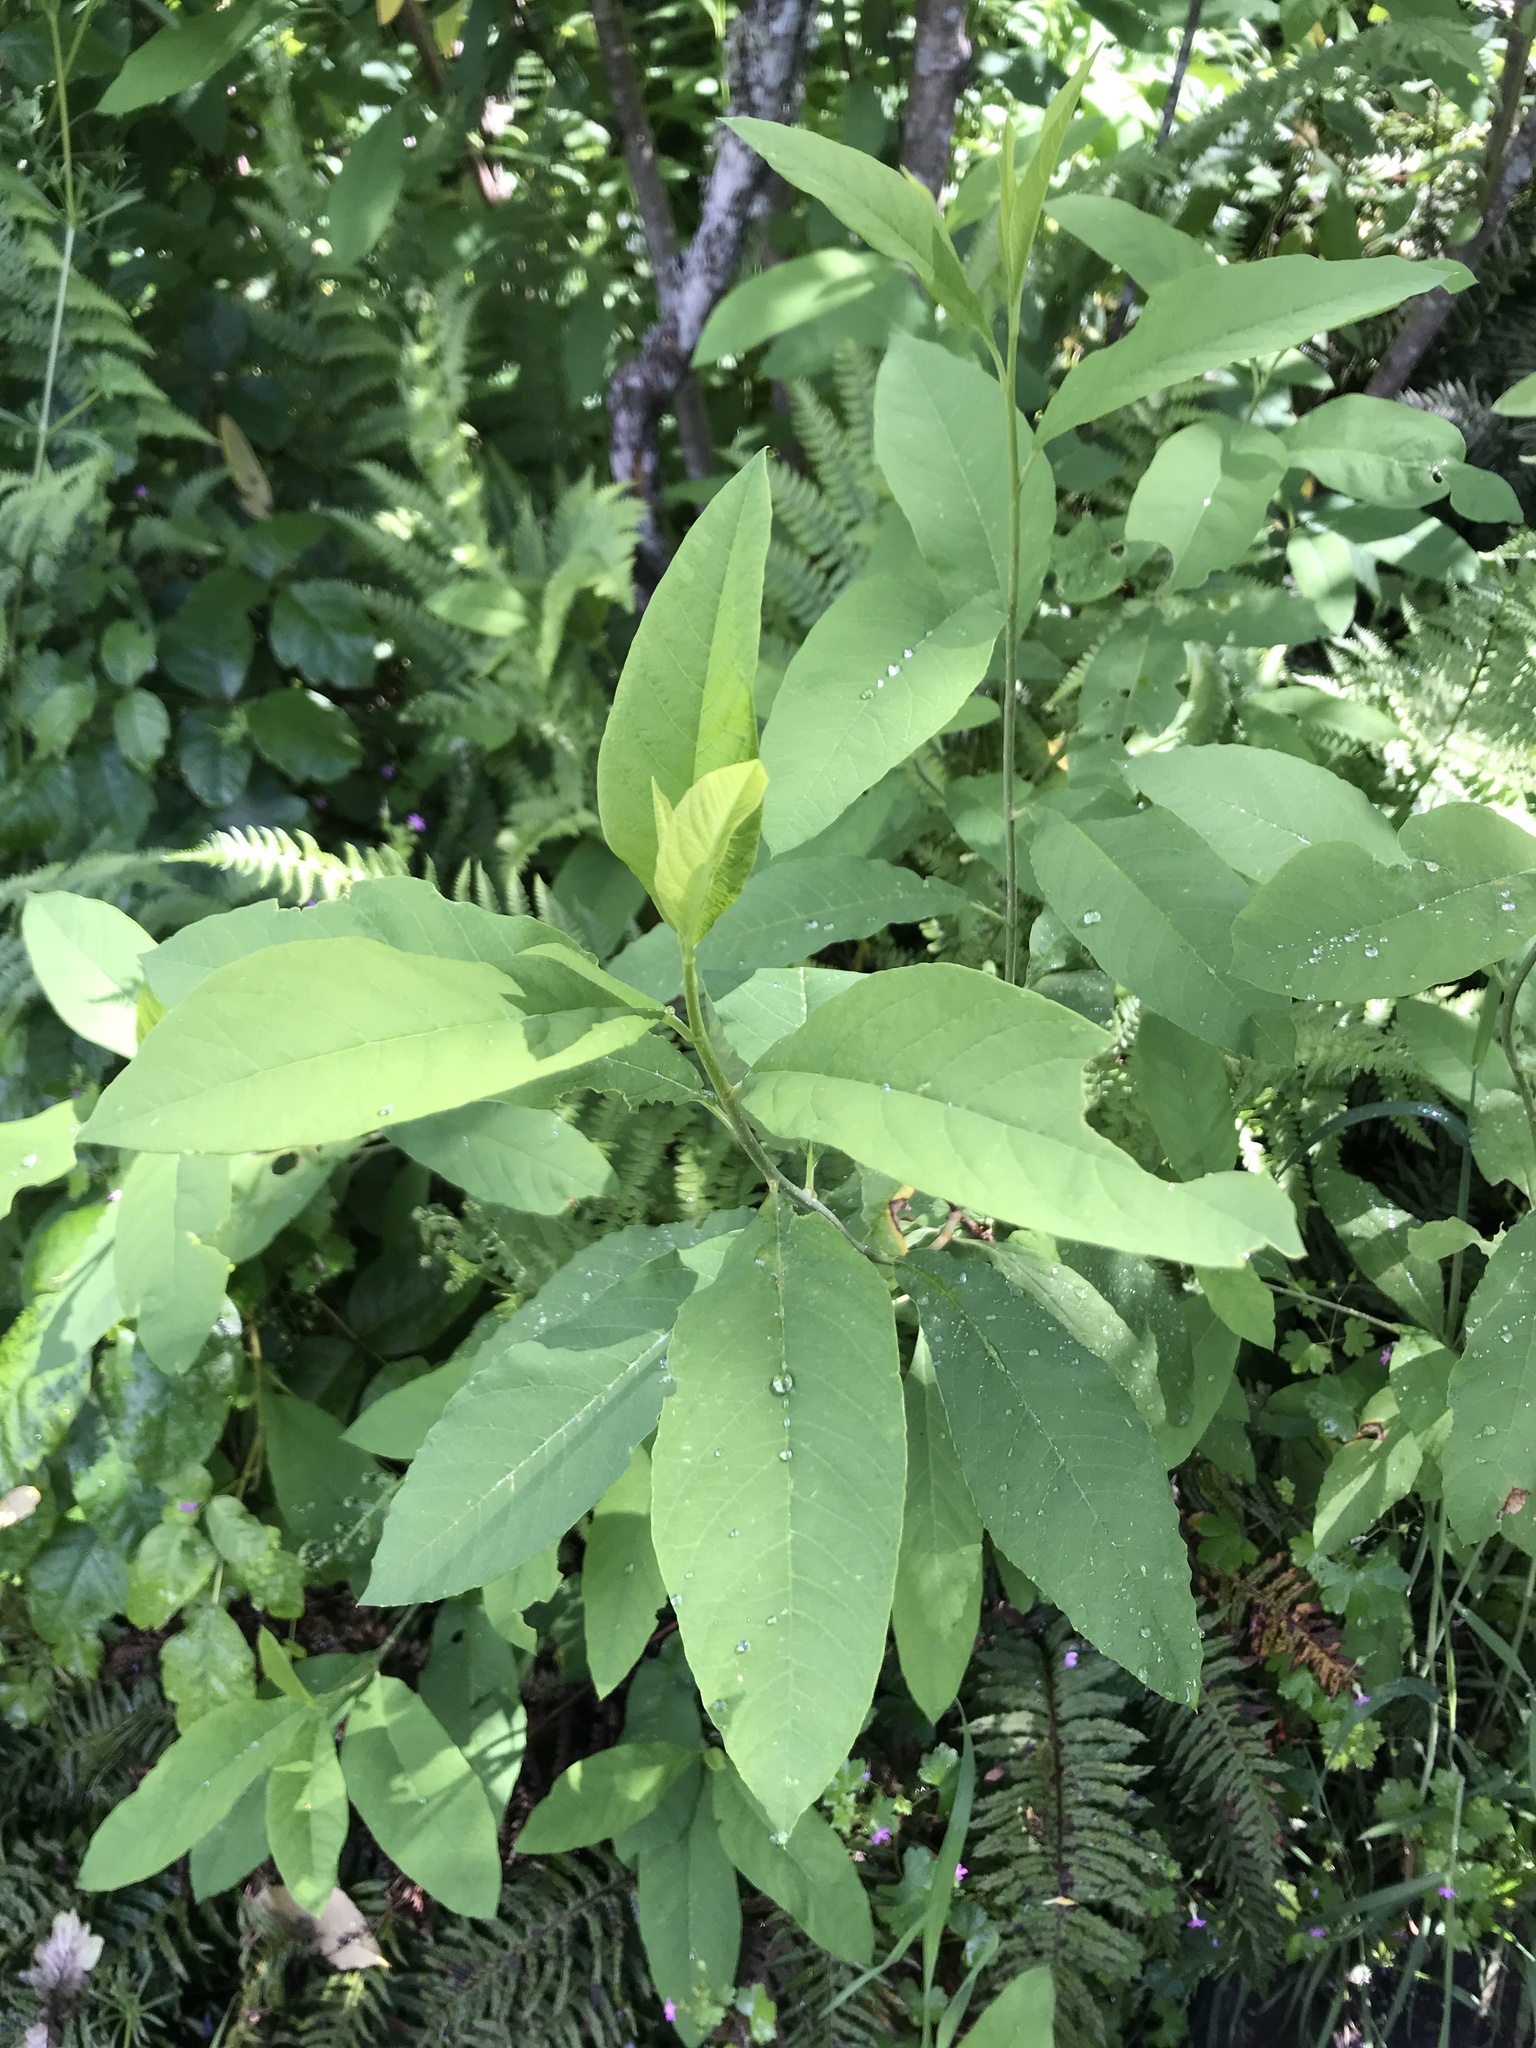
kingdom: Plantae
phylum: Tracheophyta
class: Magnoliopsida
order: Rosales
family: Rosaceae
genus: Oemleria
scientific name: Oemleria cerasiformis
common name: Osoberry
